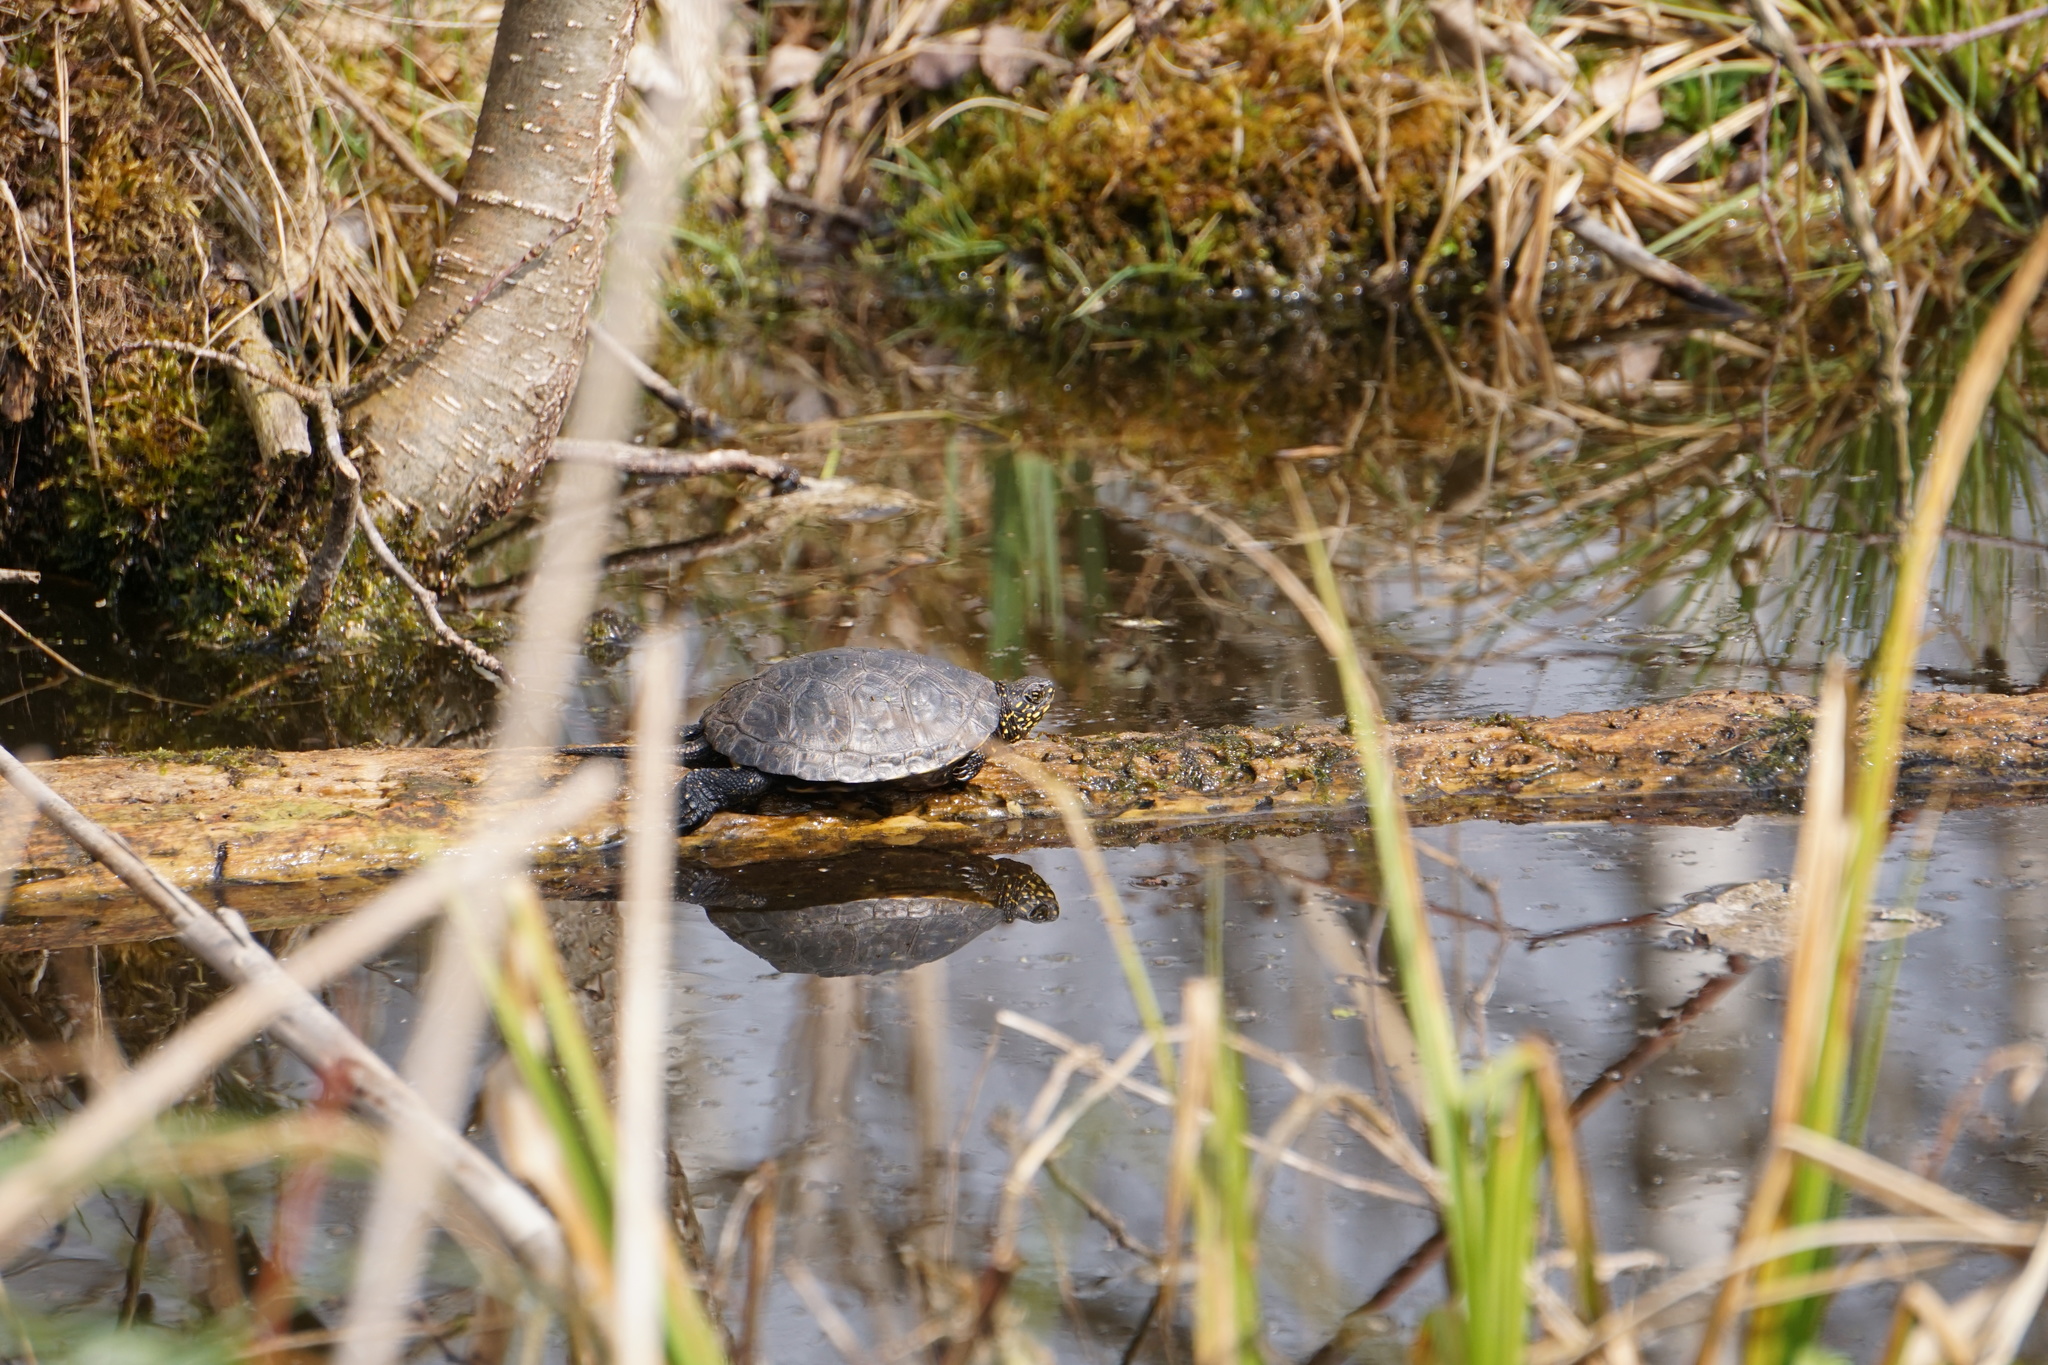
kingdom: Animalia
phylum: Chordata
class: Testudines
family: Emydidae
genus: Emys
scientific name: Emys orbicularis
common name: European pond turtle
